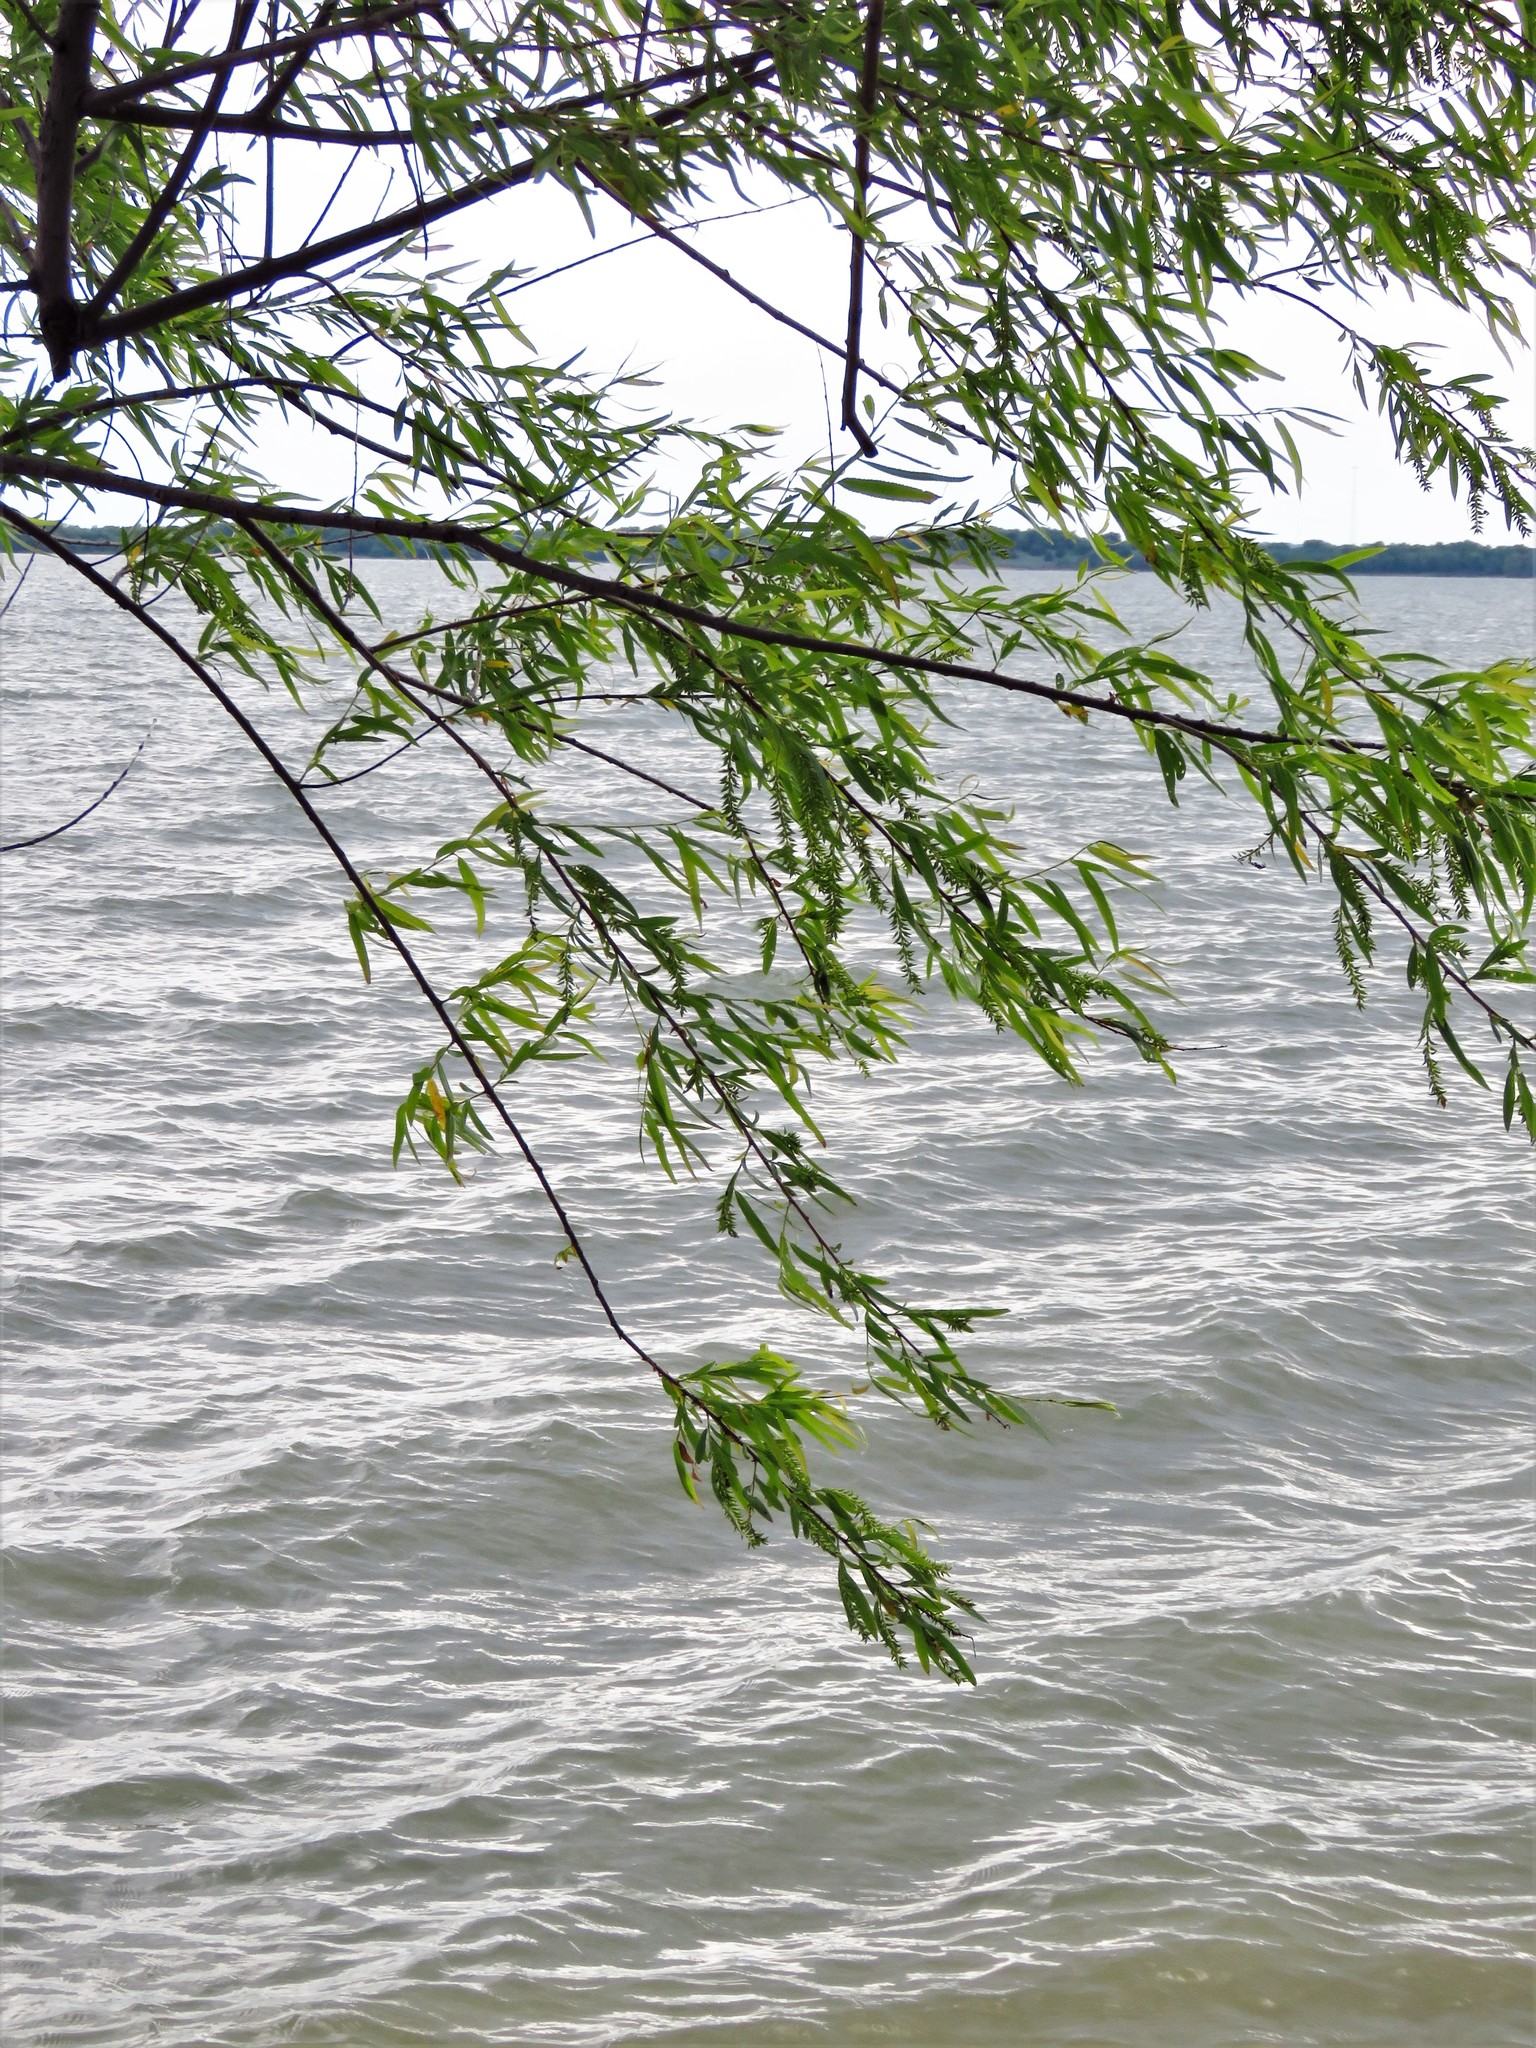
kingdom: Plantae
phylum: Tracheophyta
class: Magnoliopsida
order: Malpighiales
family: Salicaceae
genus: Salix
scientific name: Salix nigra
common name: Black willow
